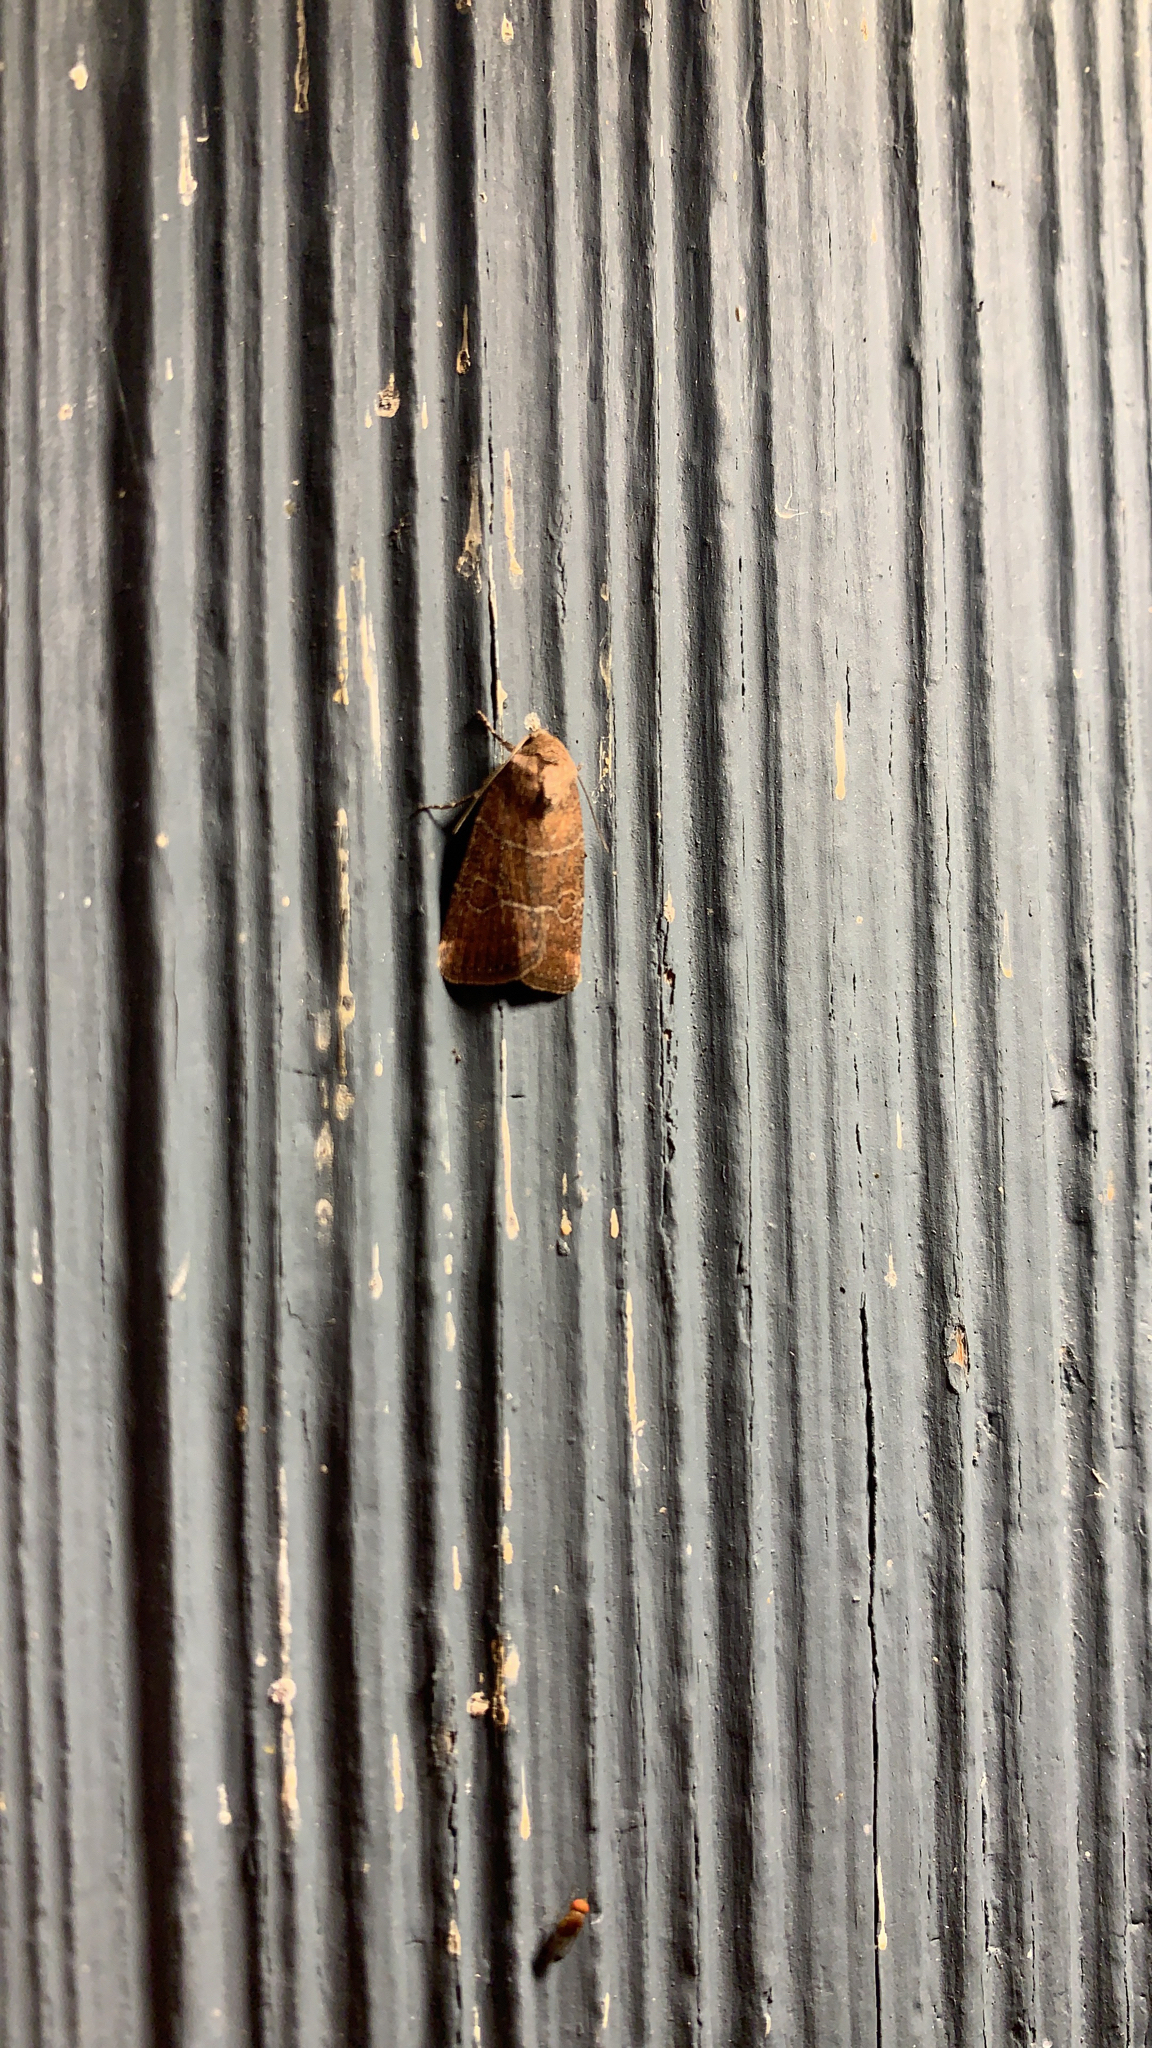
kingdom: Animalia
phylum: Arthropoda
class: Insecta
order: Lepidoptera
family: Noctuidae
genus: Elaphria
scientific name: Elaphria grata
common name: Grateful midget moth
